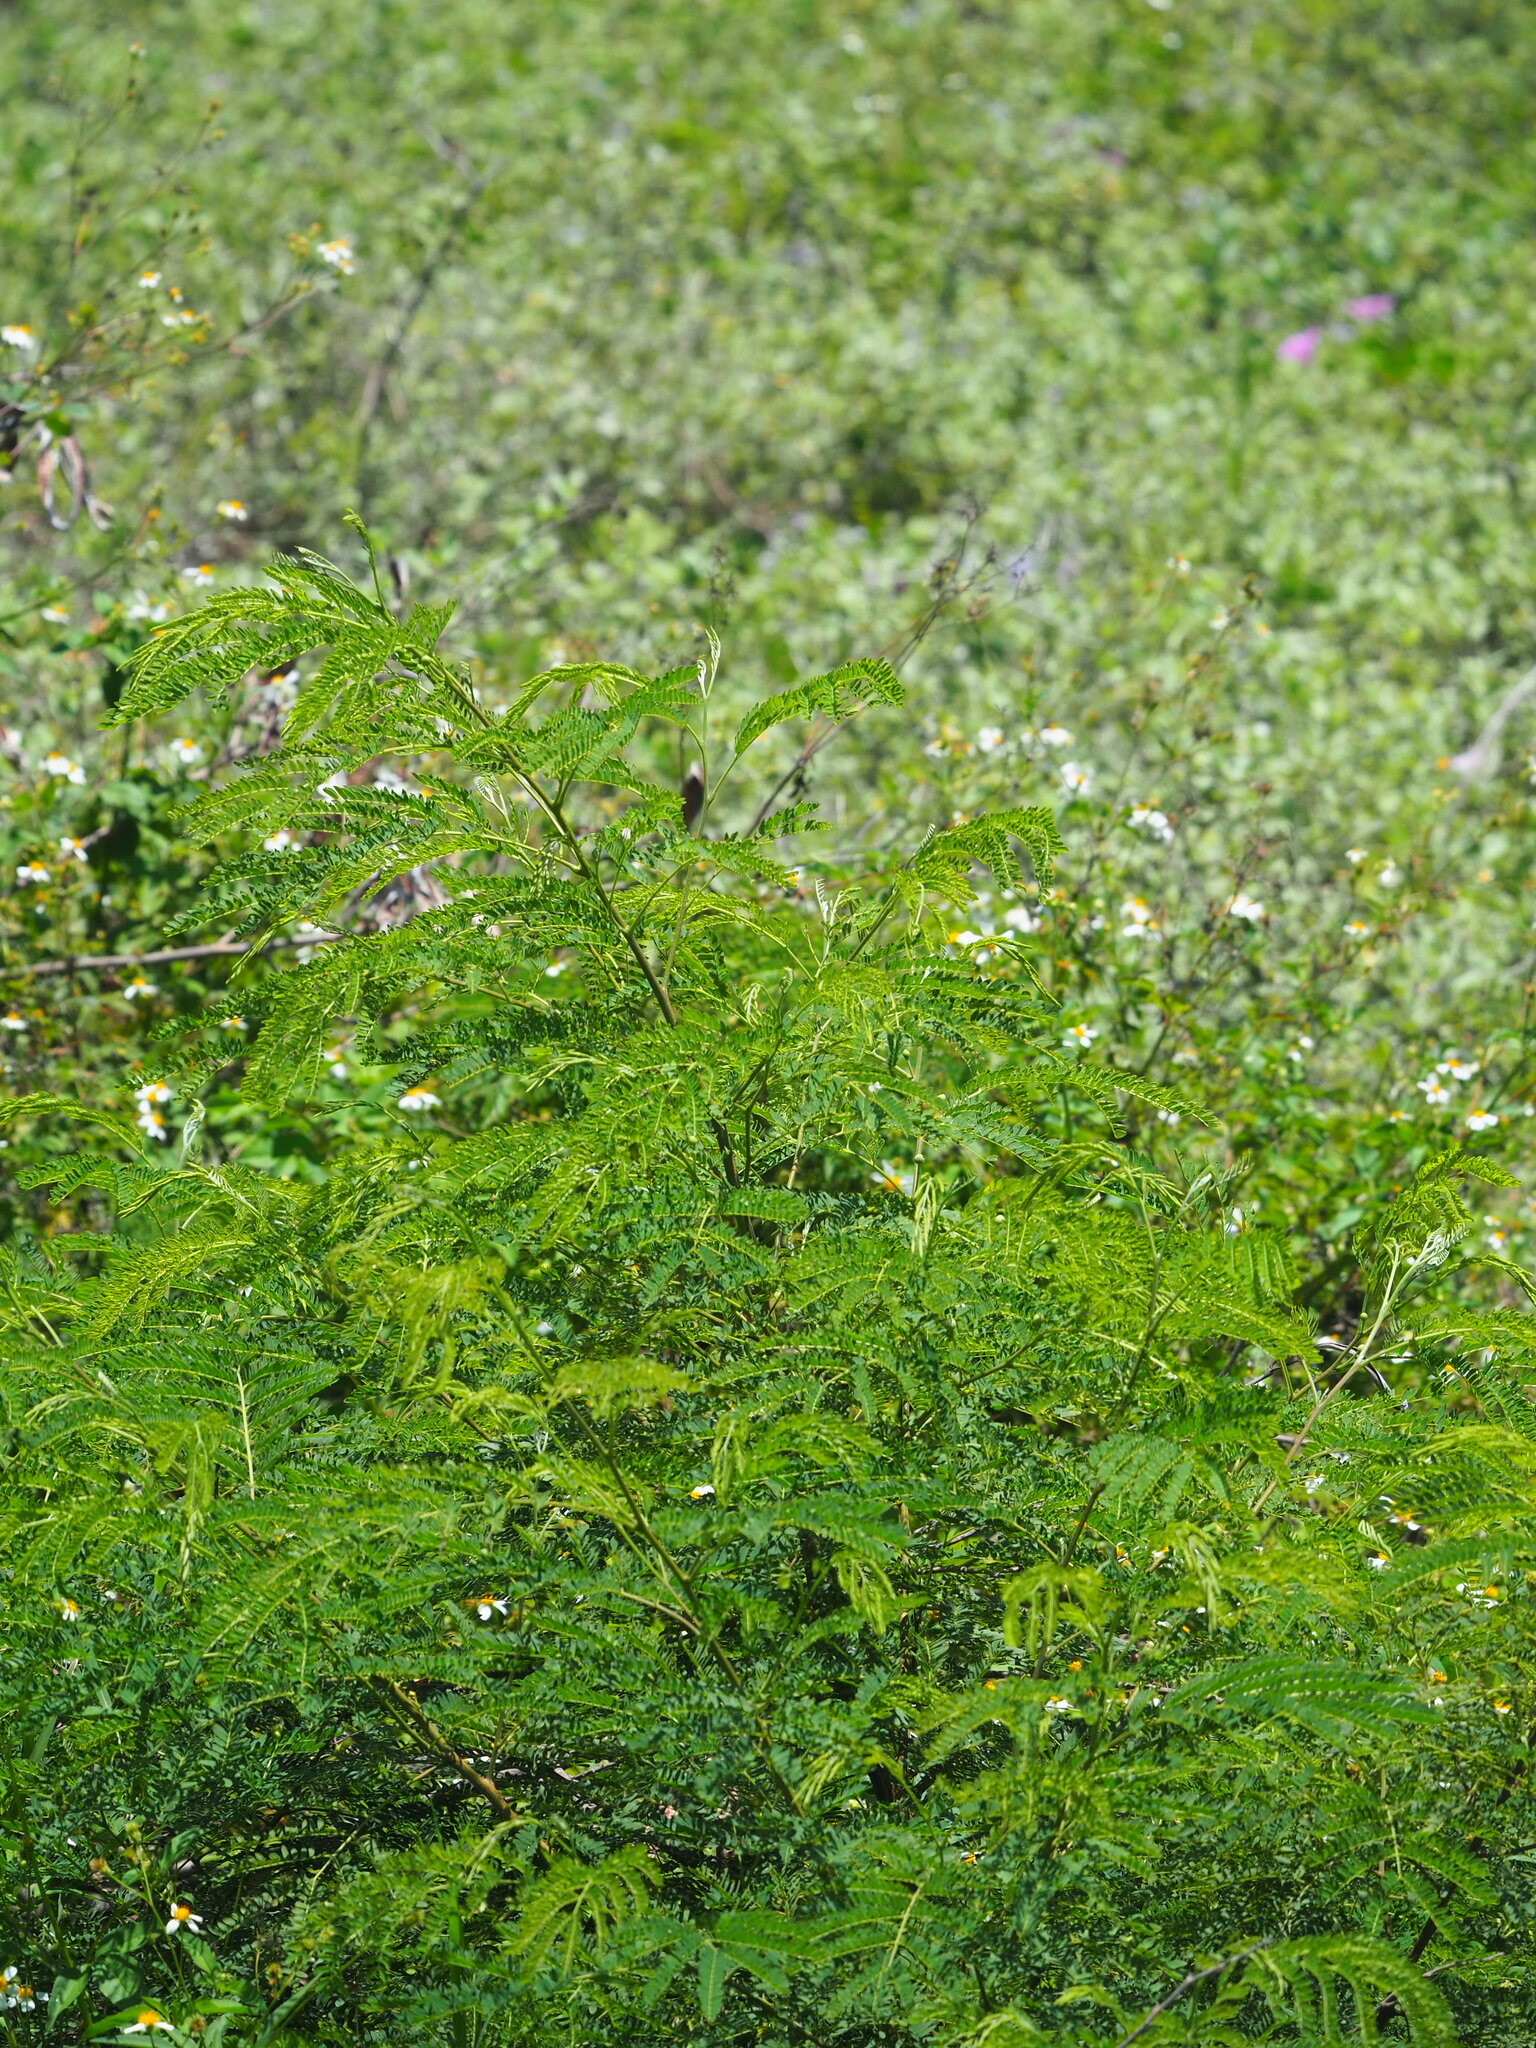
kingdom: Plantae
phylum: Tracheophyta
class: Magnoliopsida
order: Fabales
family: Fabaceae
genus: Leucaena
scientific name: Leucaena leucocephala
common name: White leadtree
